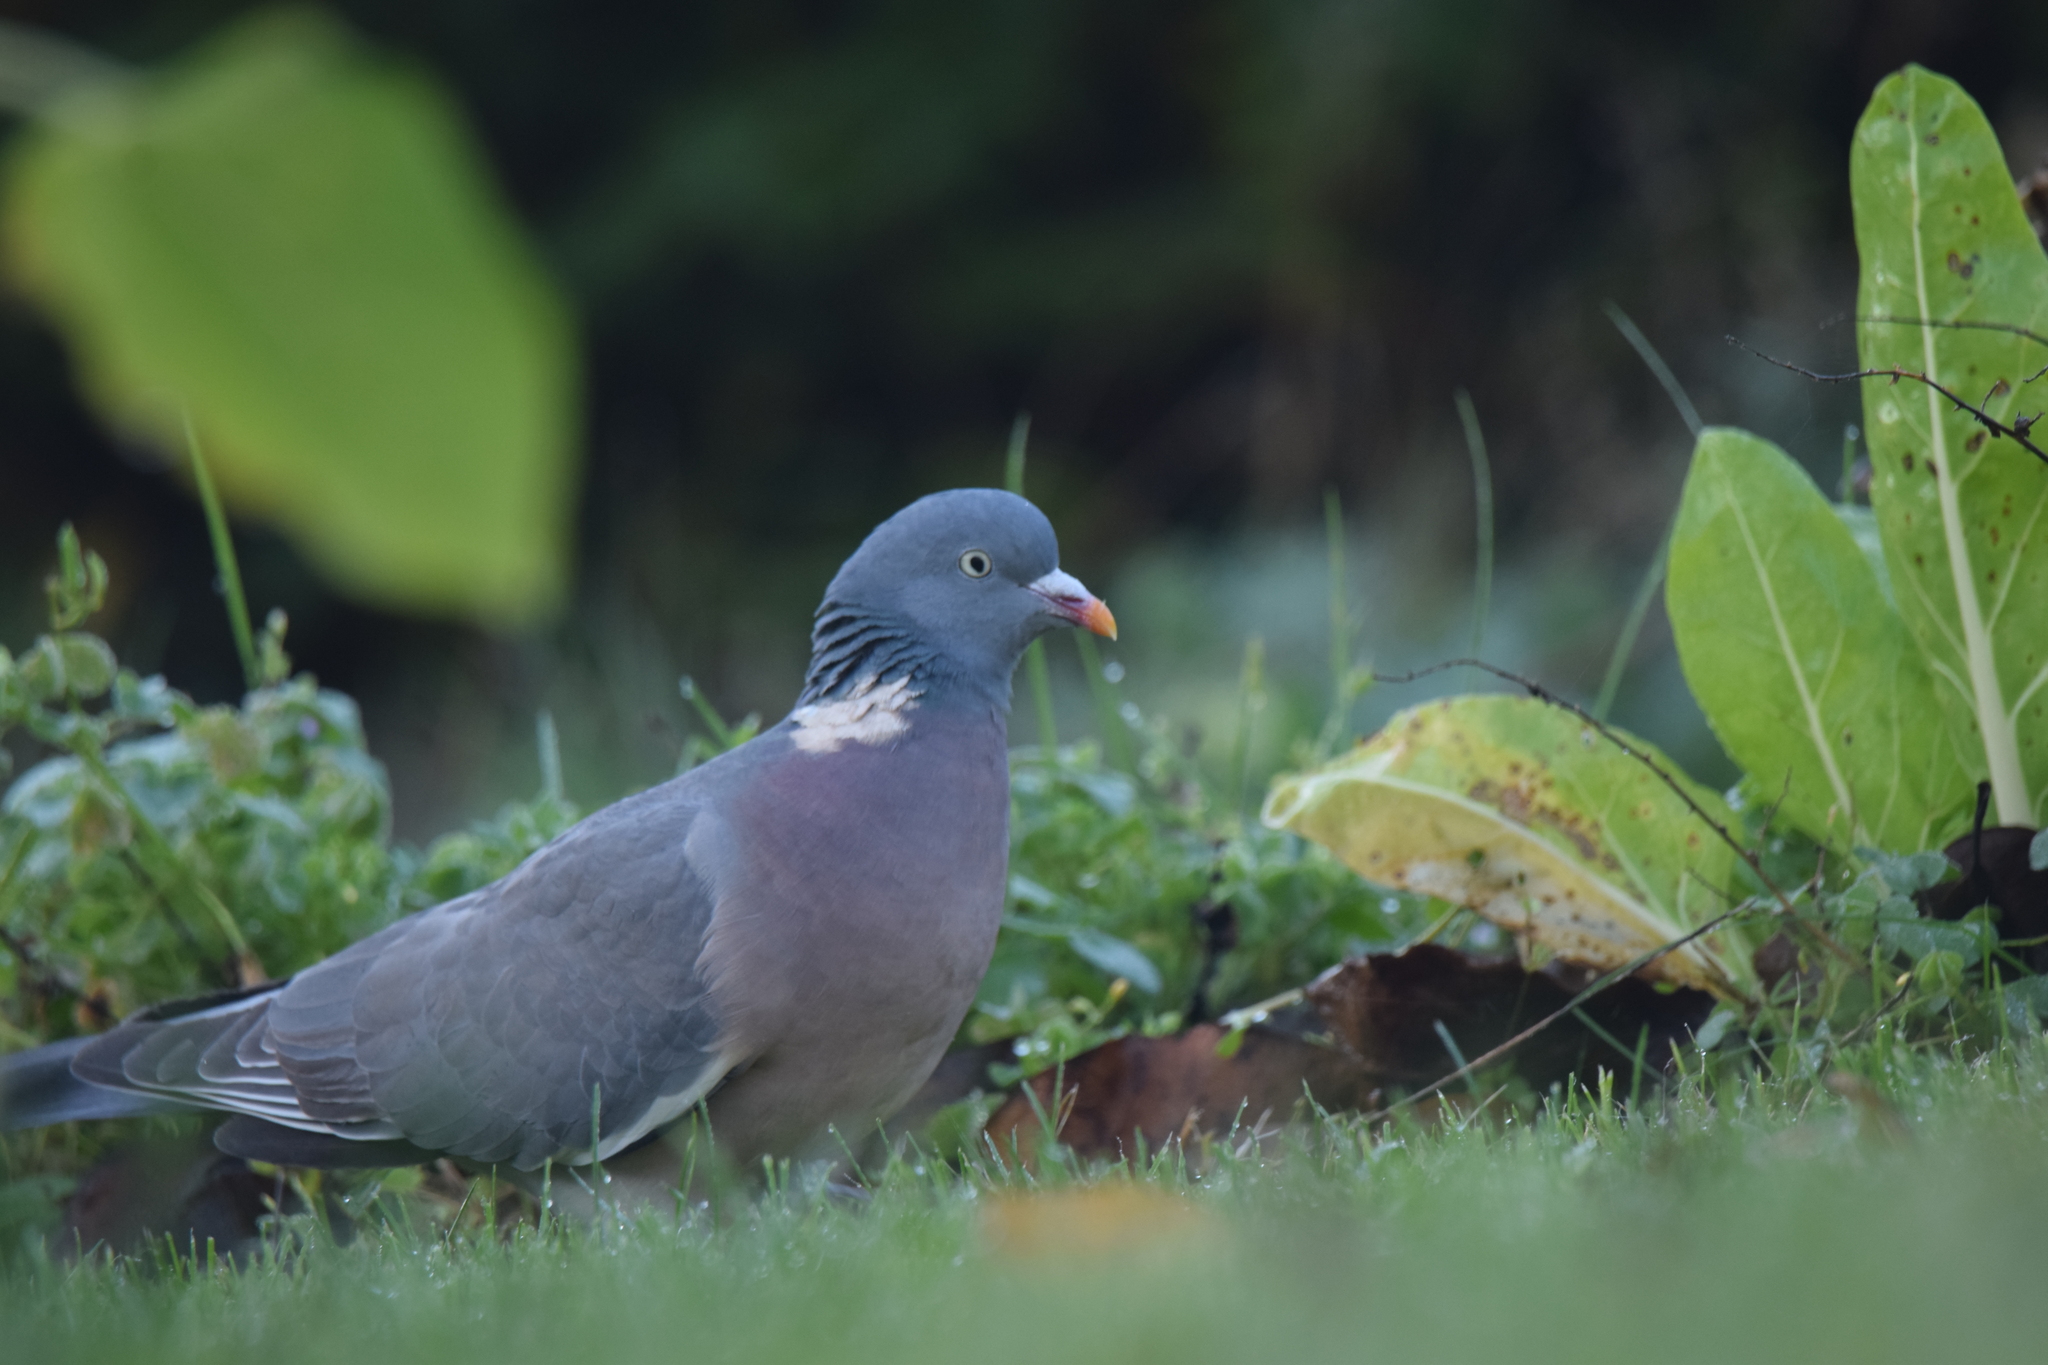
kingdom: Animalia
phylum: Chordata
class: Aves
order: Columbiformes
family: Columbidae
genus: Columba
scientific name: Columba palumbus
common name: Common wood pigeon
